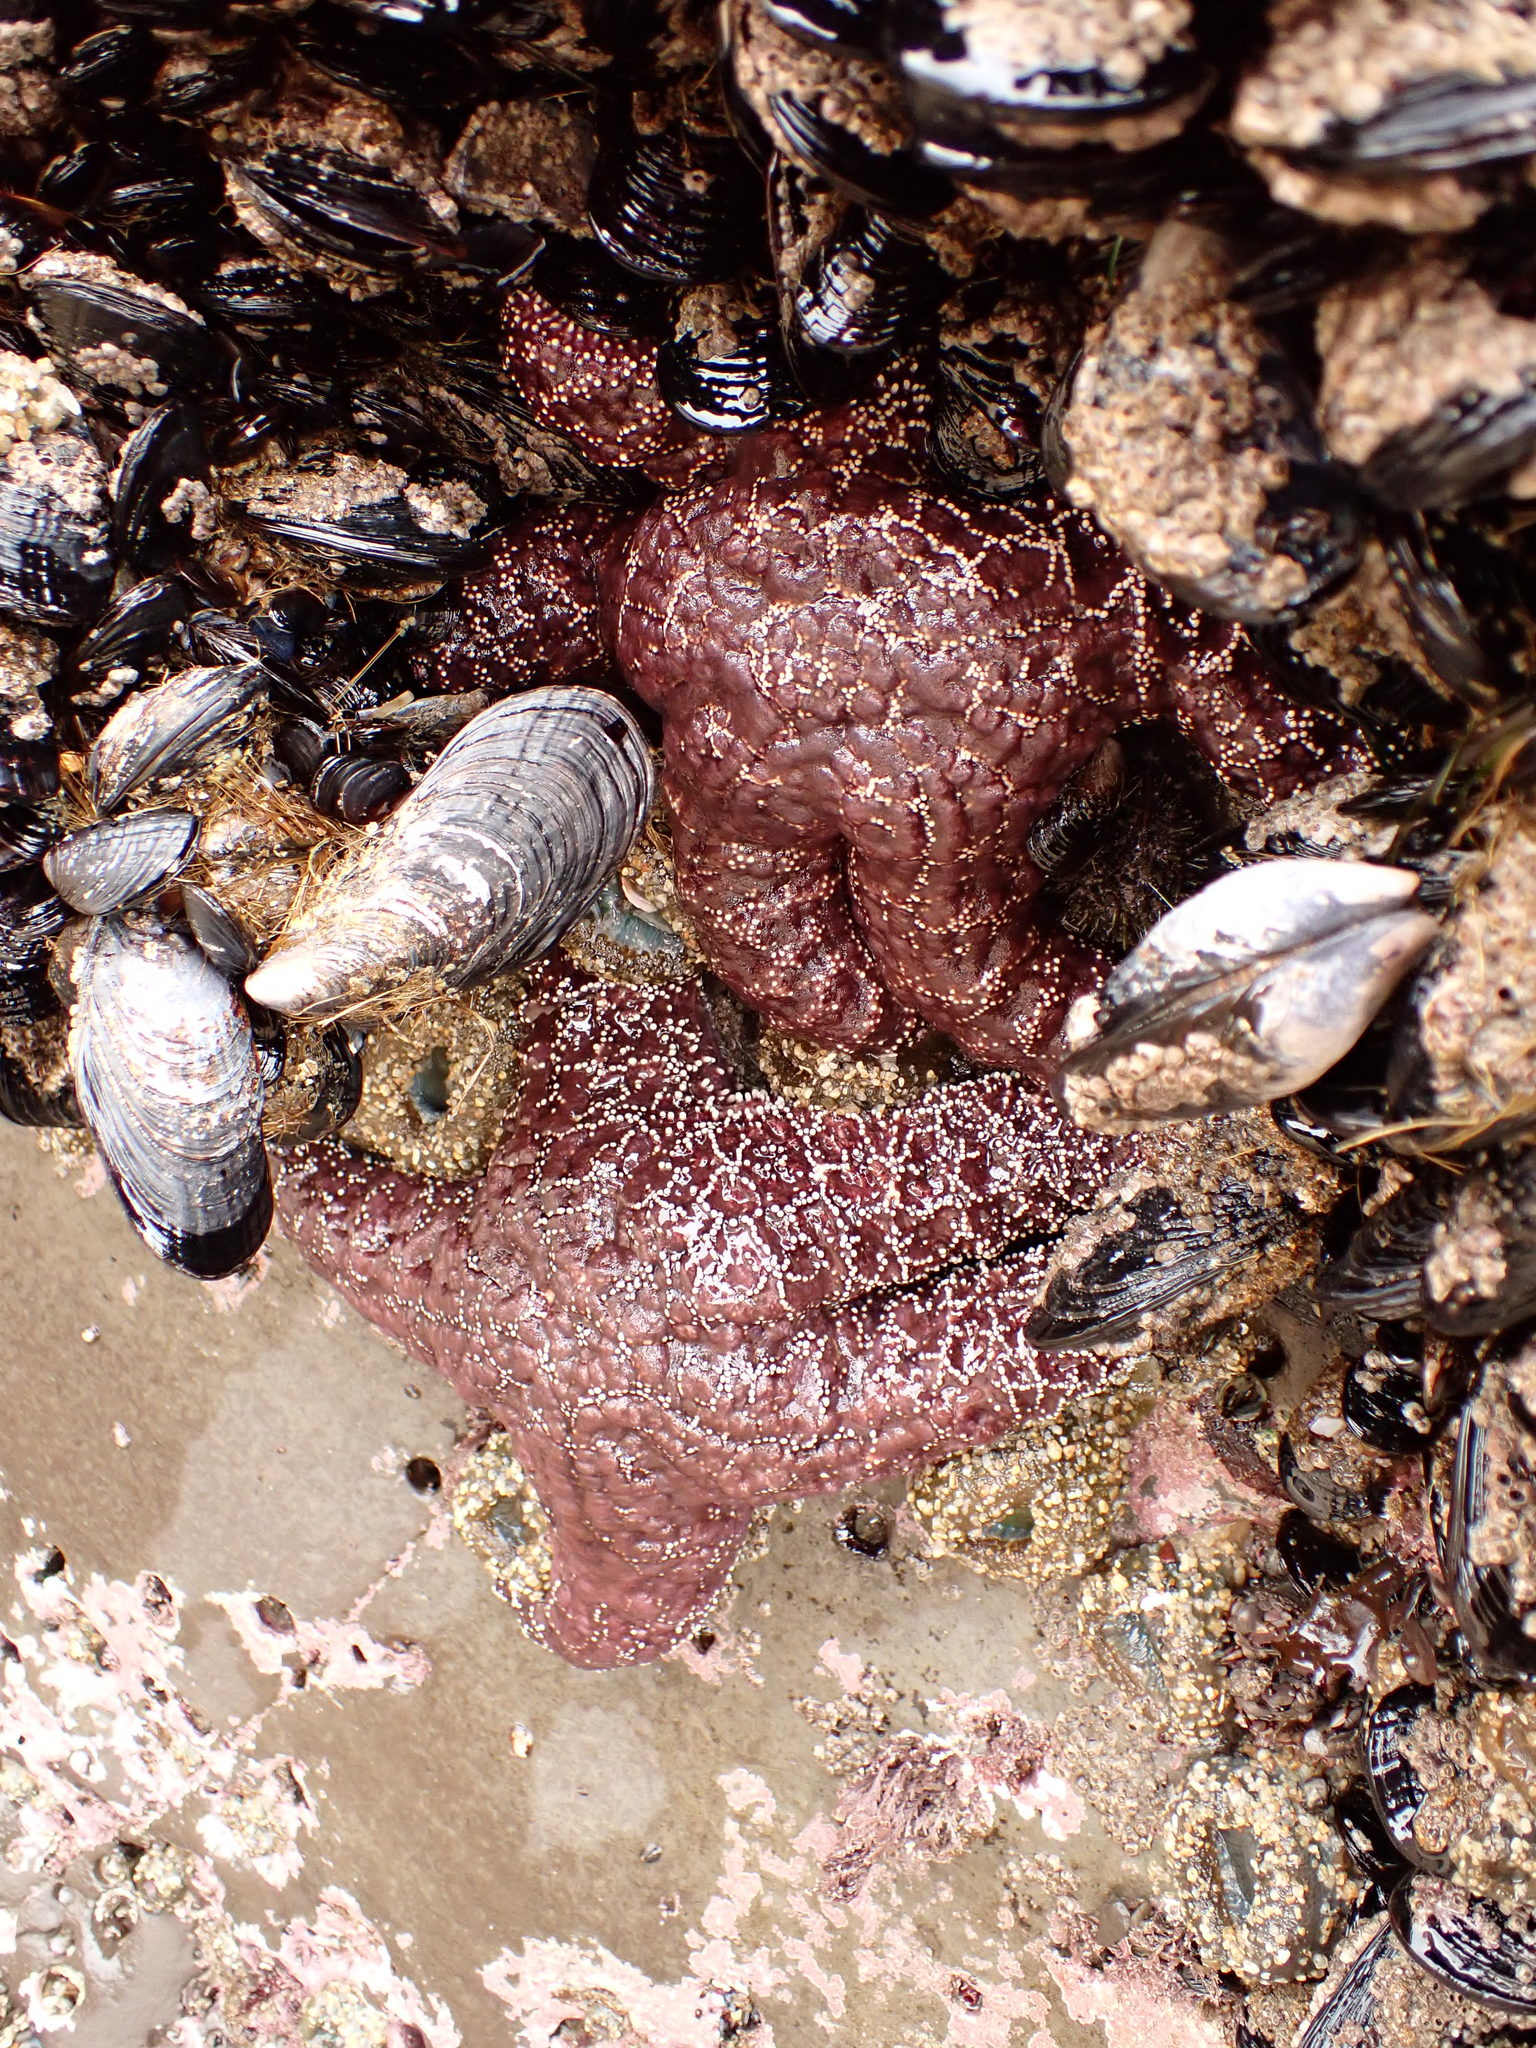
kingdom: Animalia
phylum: Echinodermata
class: Asteroidea
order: Forcipulatida
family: Asteriidae
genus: Pisaster
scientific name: Pisaster ochraceus
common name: Ochre stars
